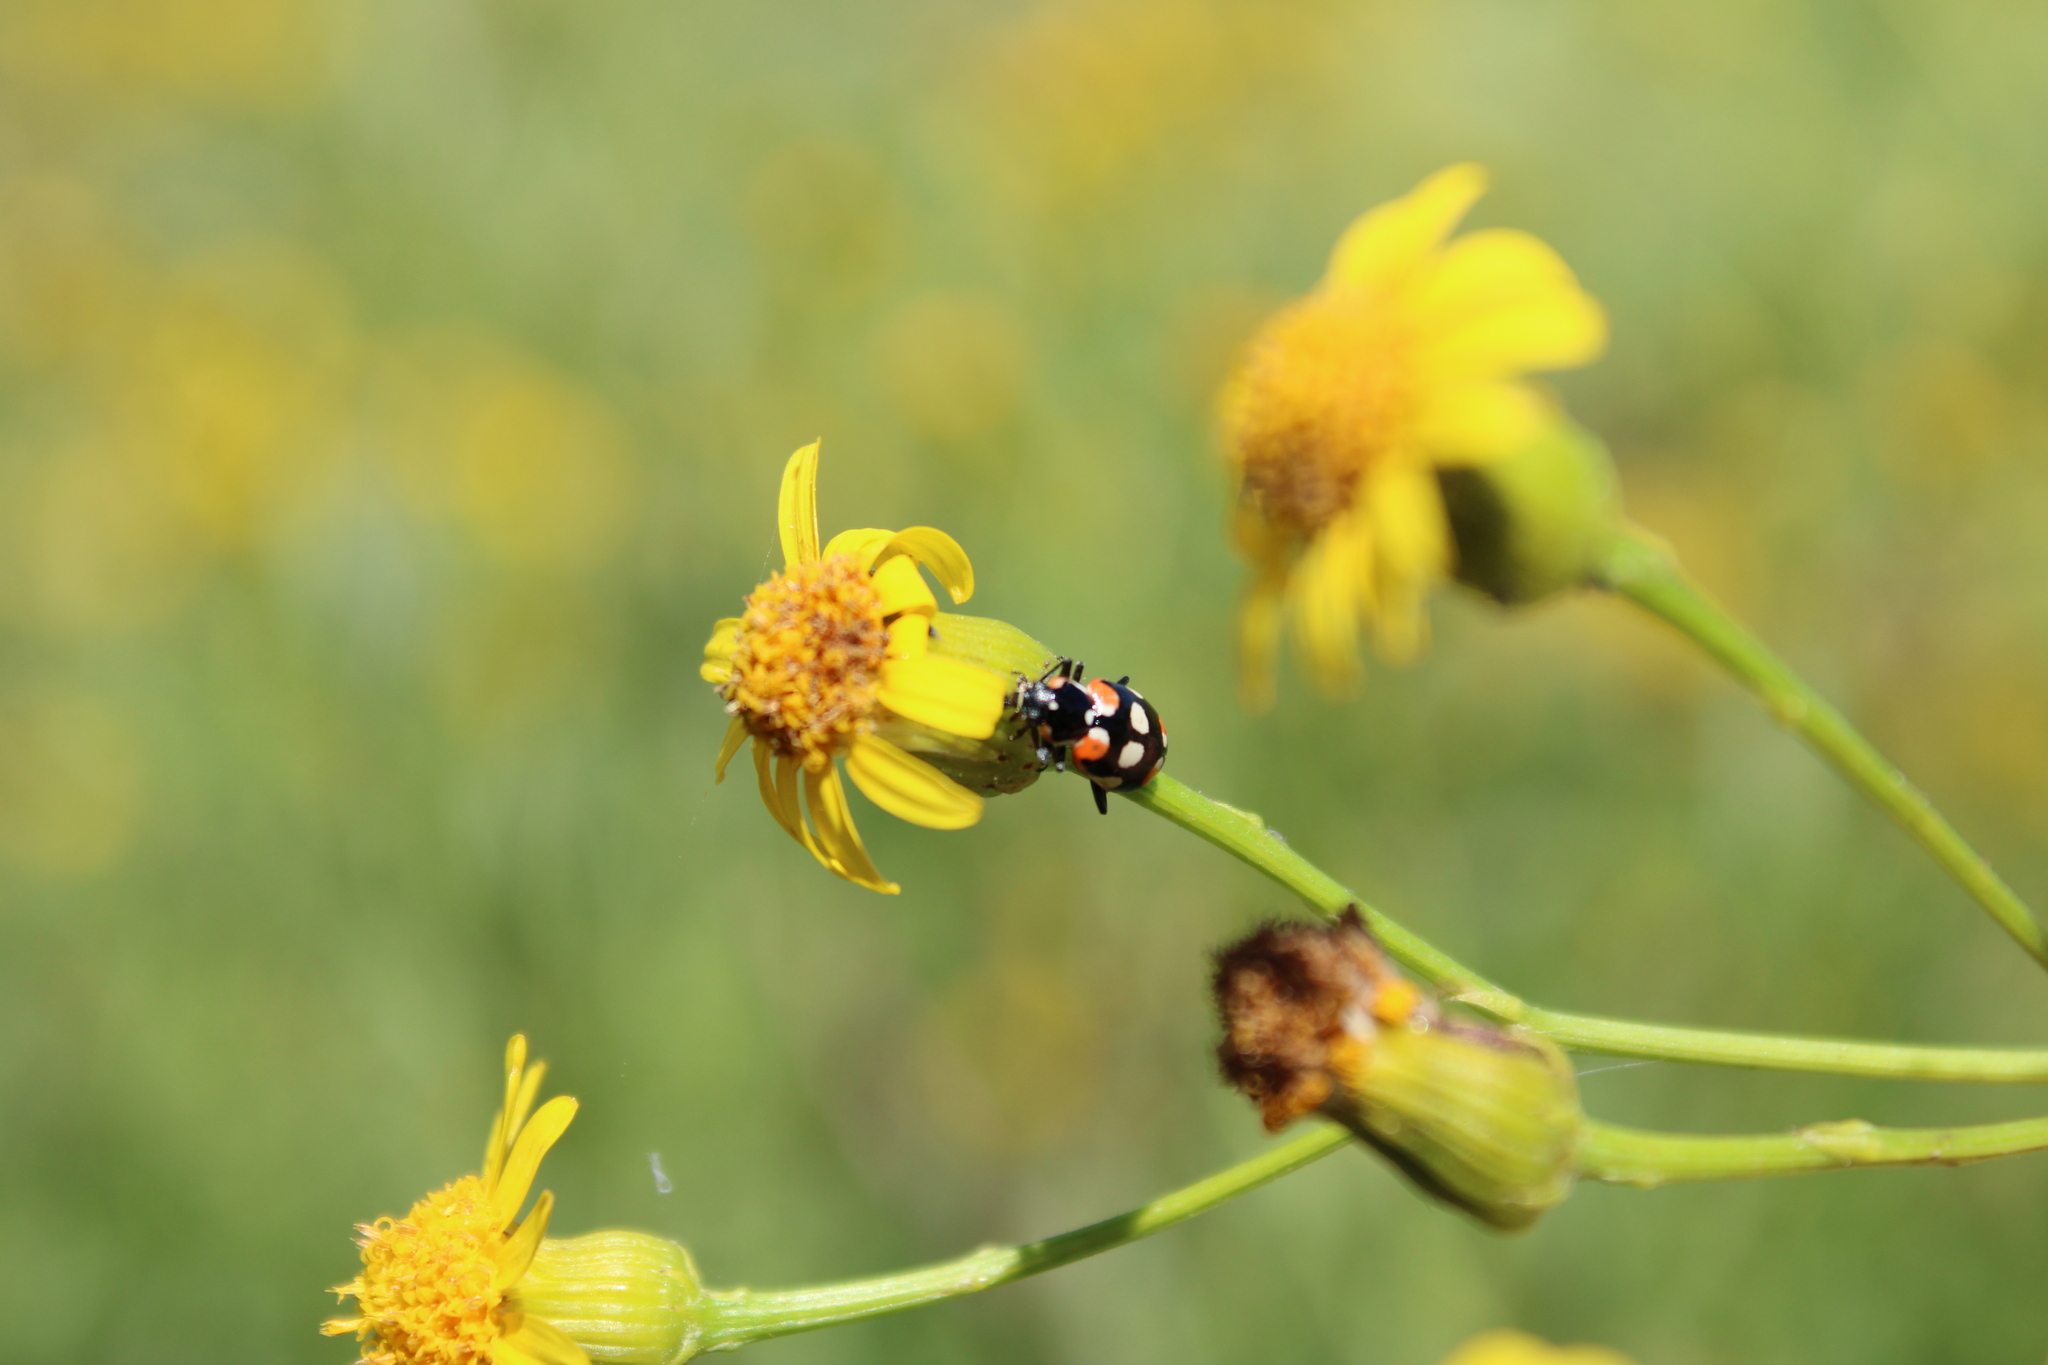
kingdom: Animalia
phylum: Arthropoda
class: Insecta
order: Coleoptera
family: Coccinellidae
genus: Eriopis
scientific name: Eriopis connexa
